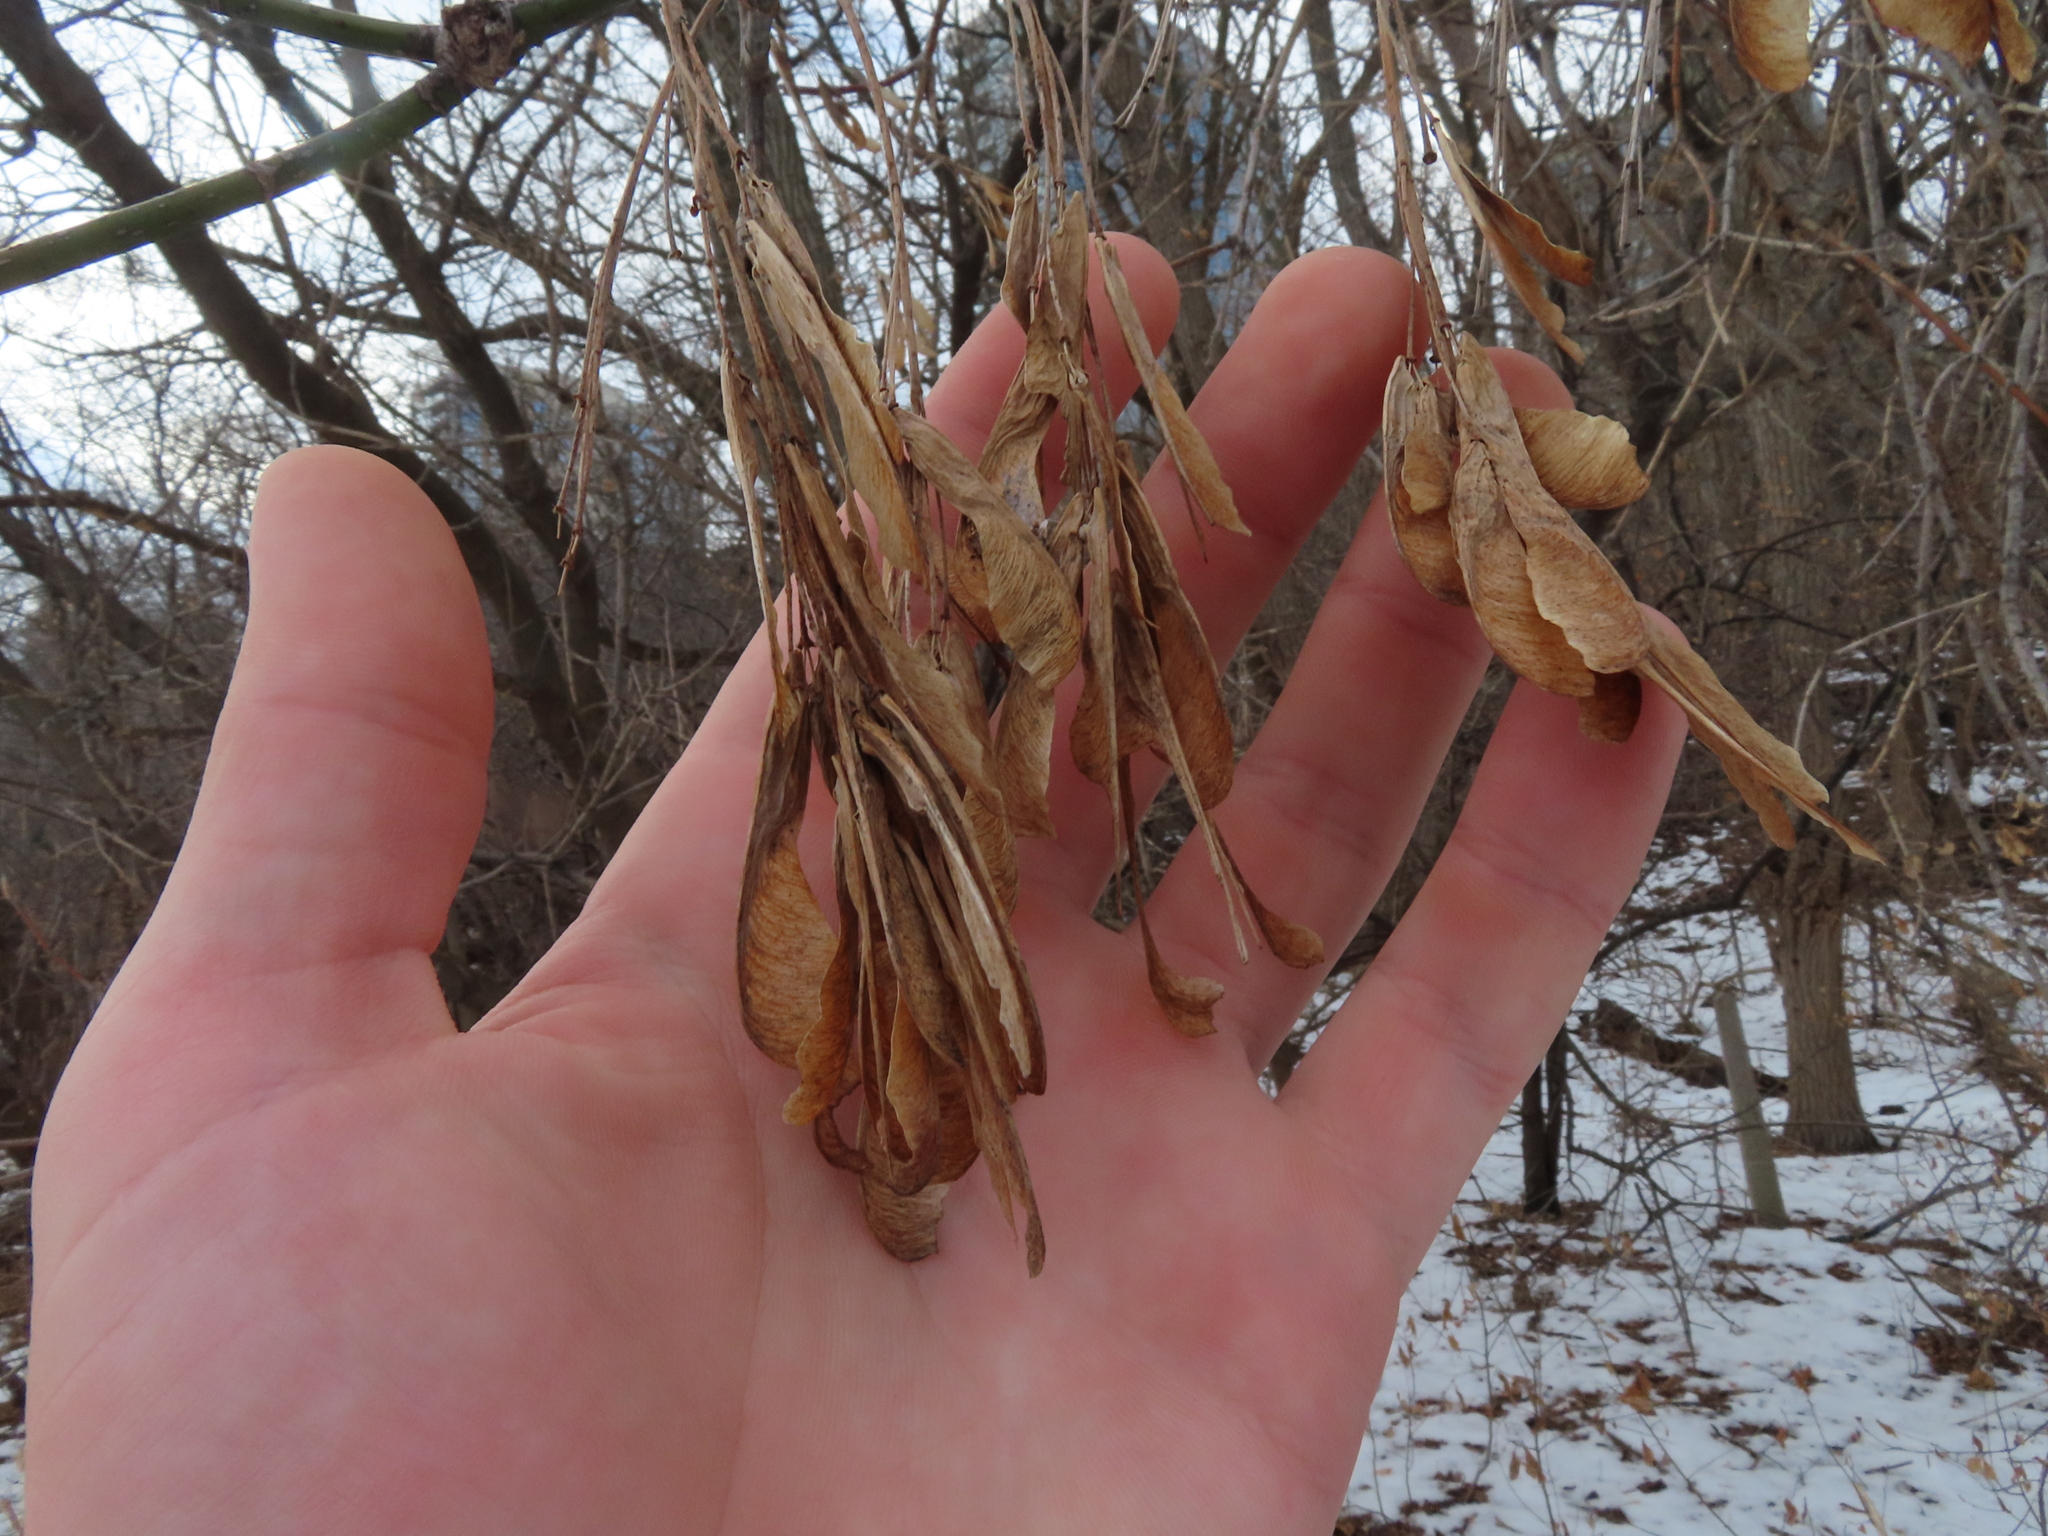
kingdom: Plantae
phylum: Tracheophyta
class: Magnoliopsida
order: Sapindales
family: Sapindaceae
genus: Acer
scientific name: Acer negundo
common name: Ashleaf maple
